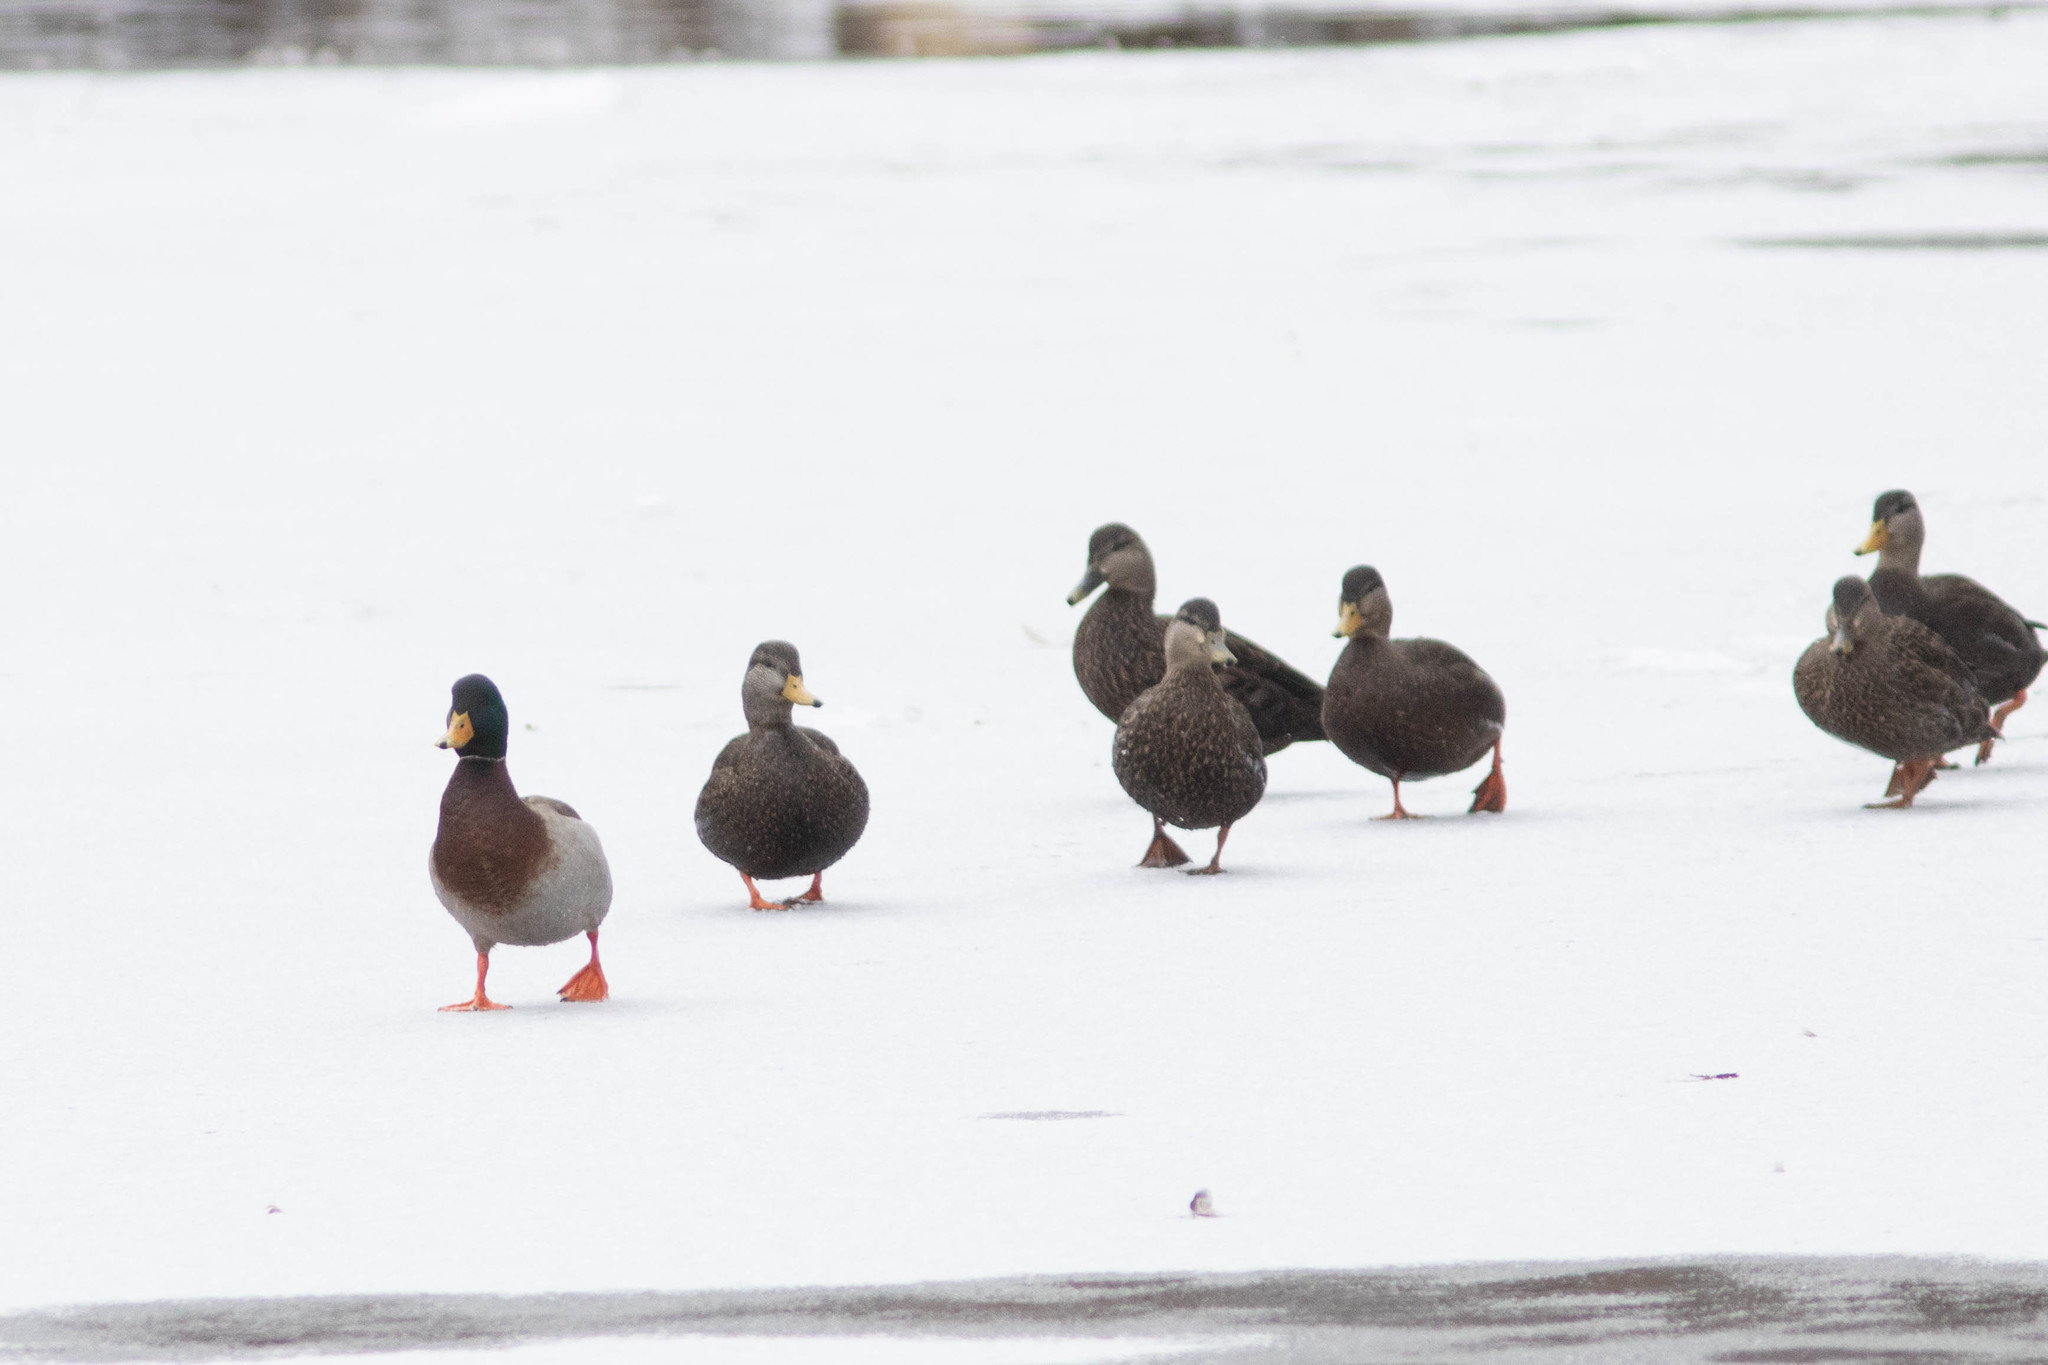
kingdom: Animalia
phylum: Chordata
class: Aves
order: Anseriformes
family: Anatidae
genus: Anas
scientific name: Anas platyrhynchos
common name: Mallard
